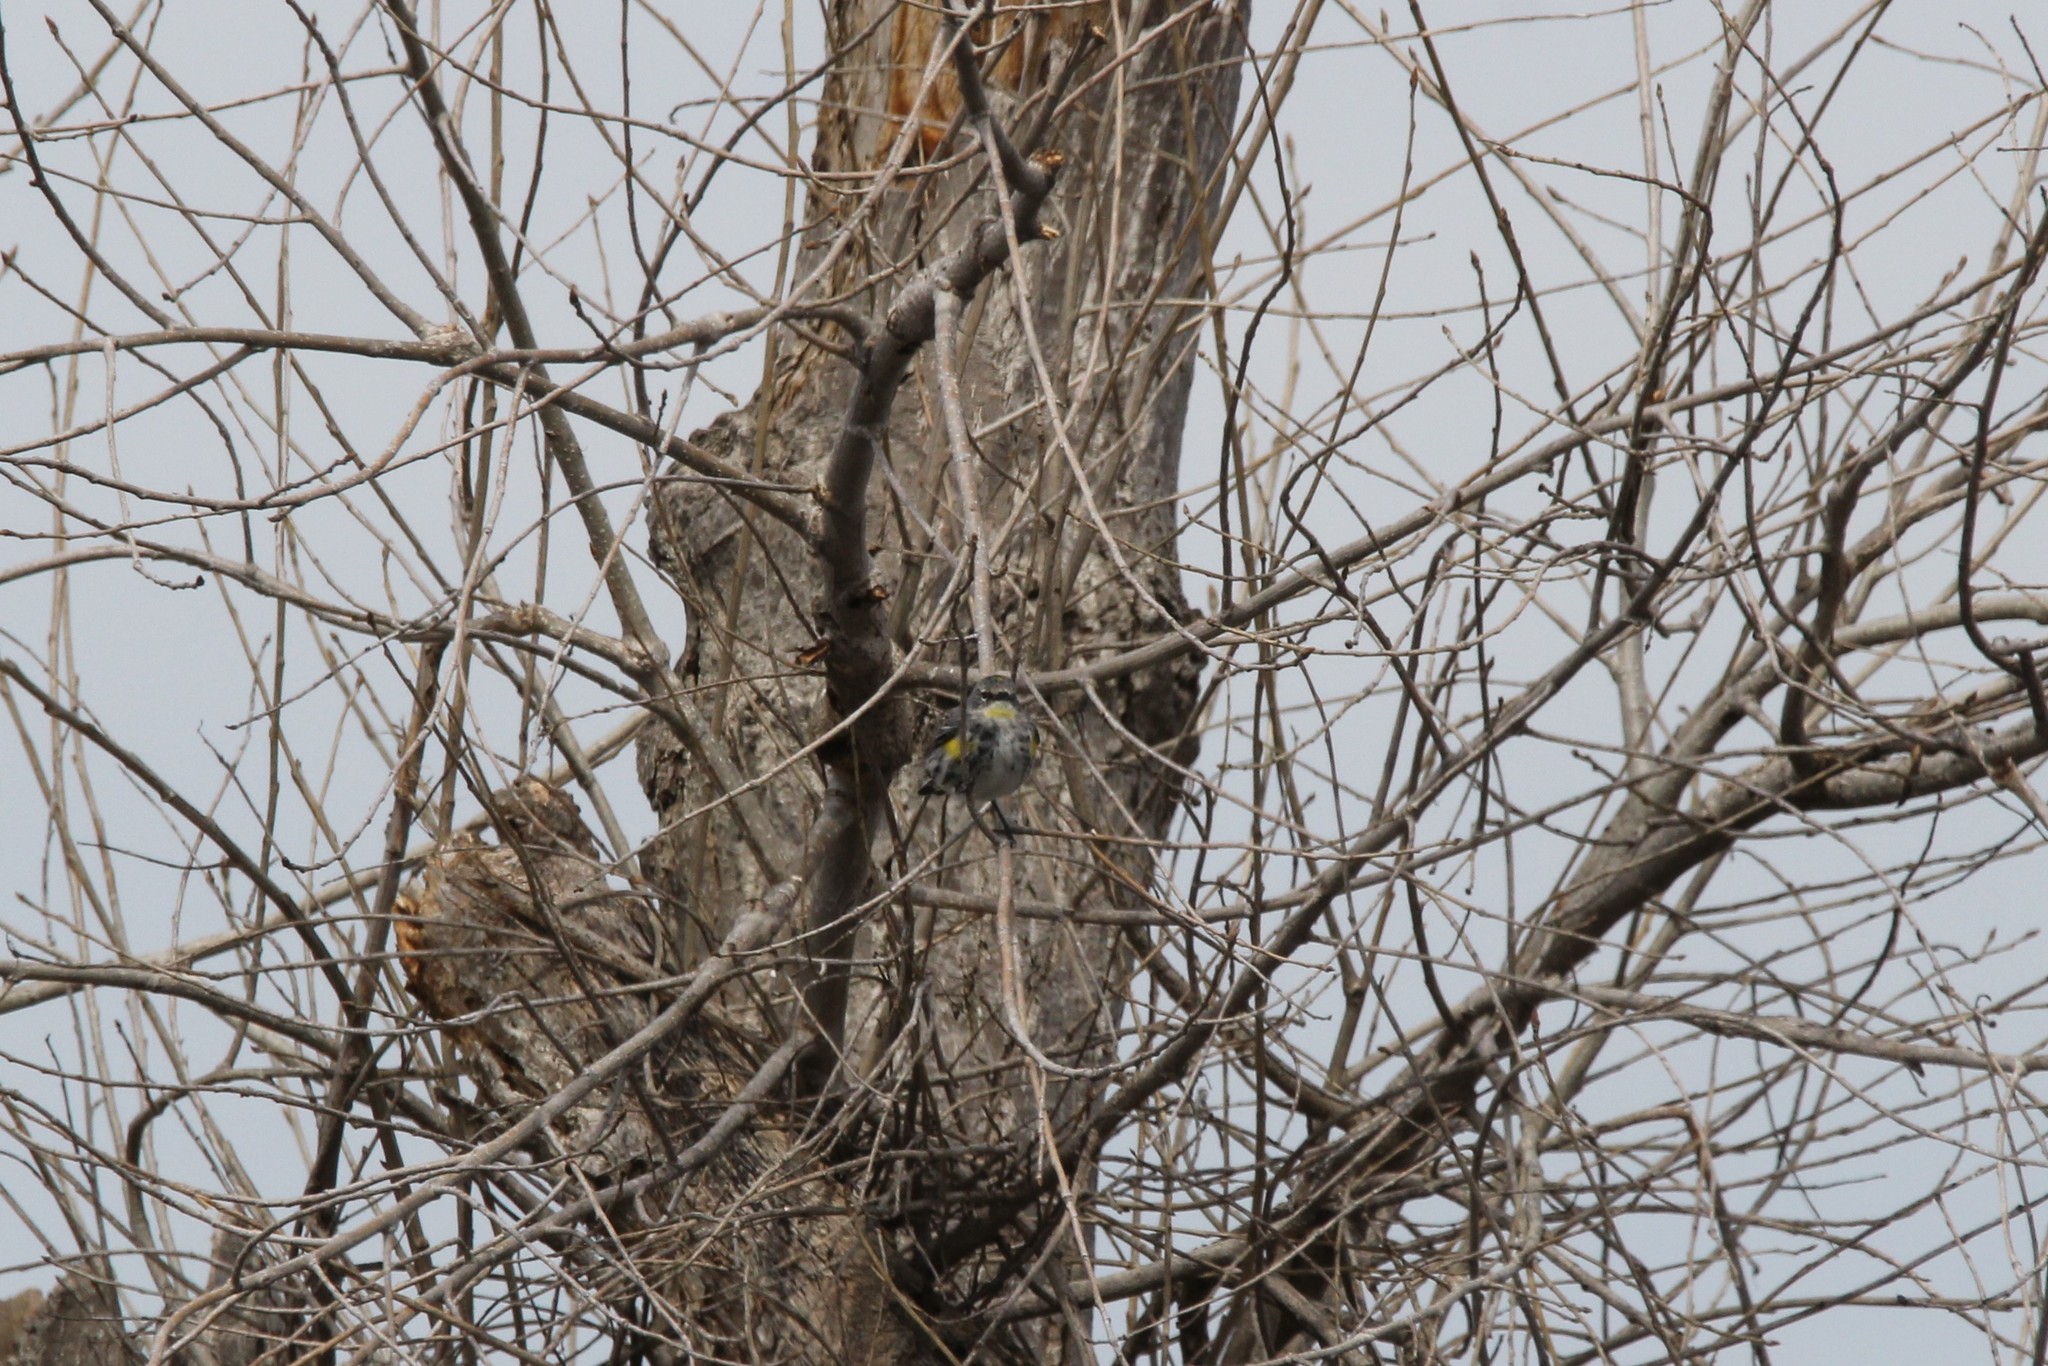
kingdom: Animalia
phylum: Chordata
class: Aves
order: Passeriformes
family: Parulidae
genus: Setophaga
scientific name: Setophaga coronata
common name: Myrtle warbler
